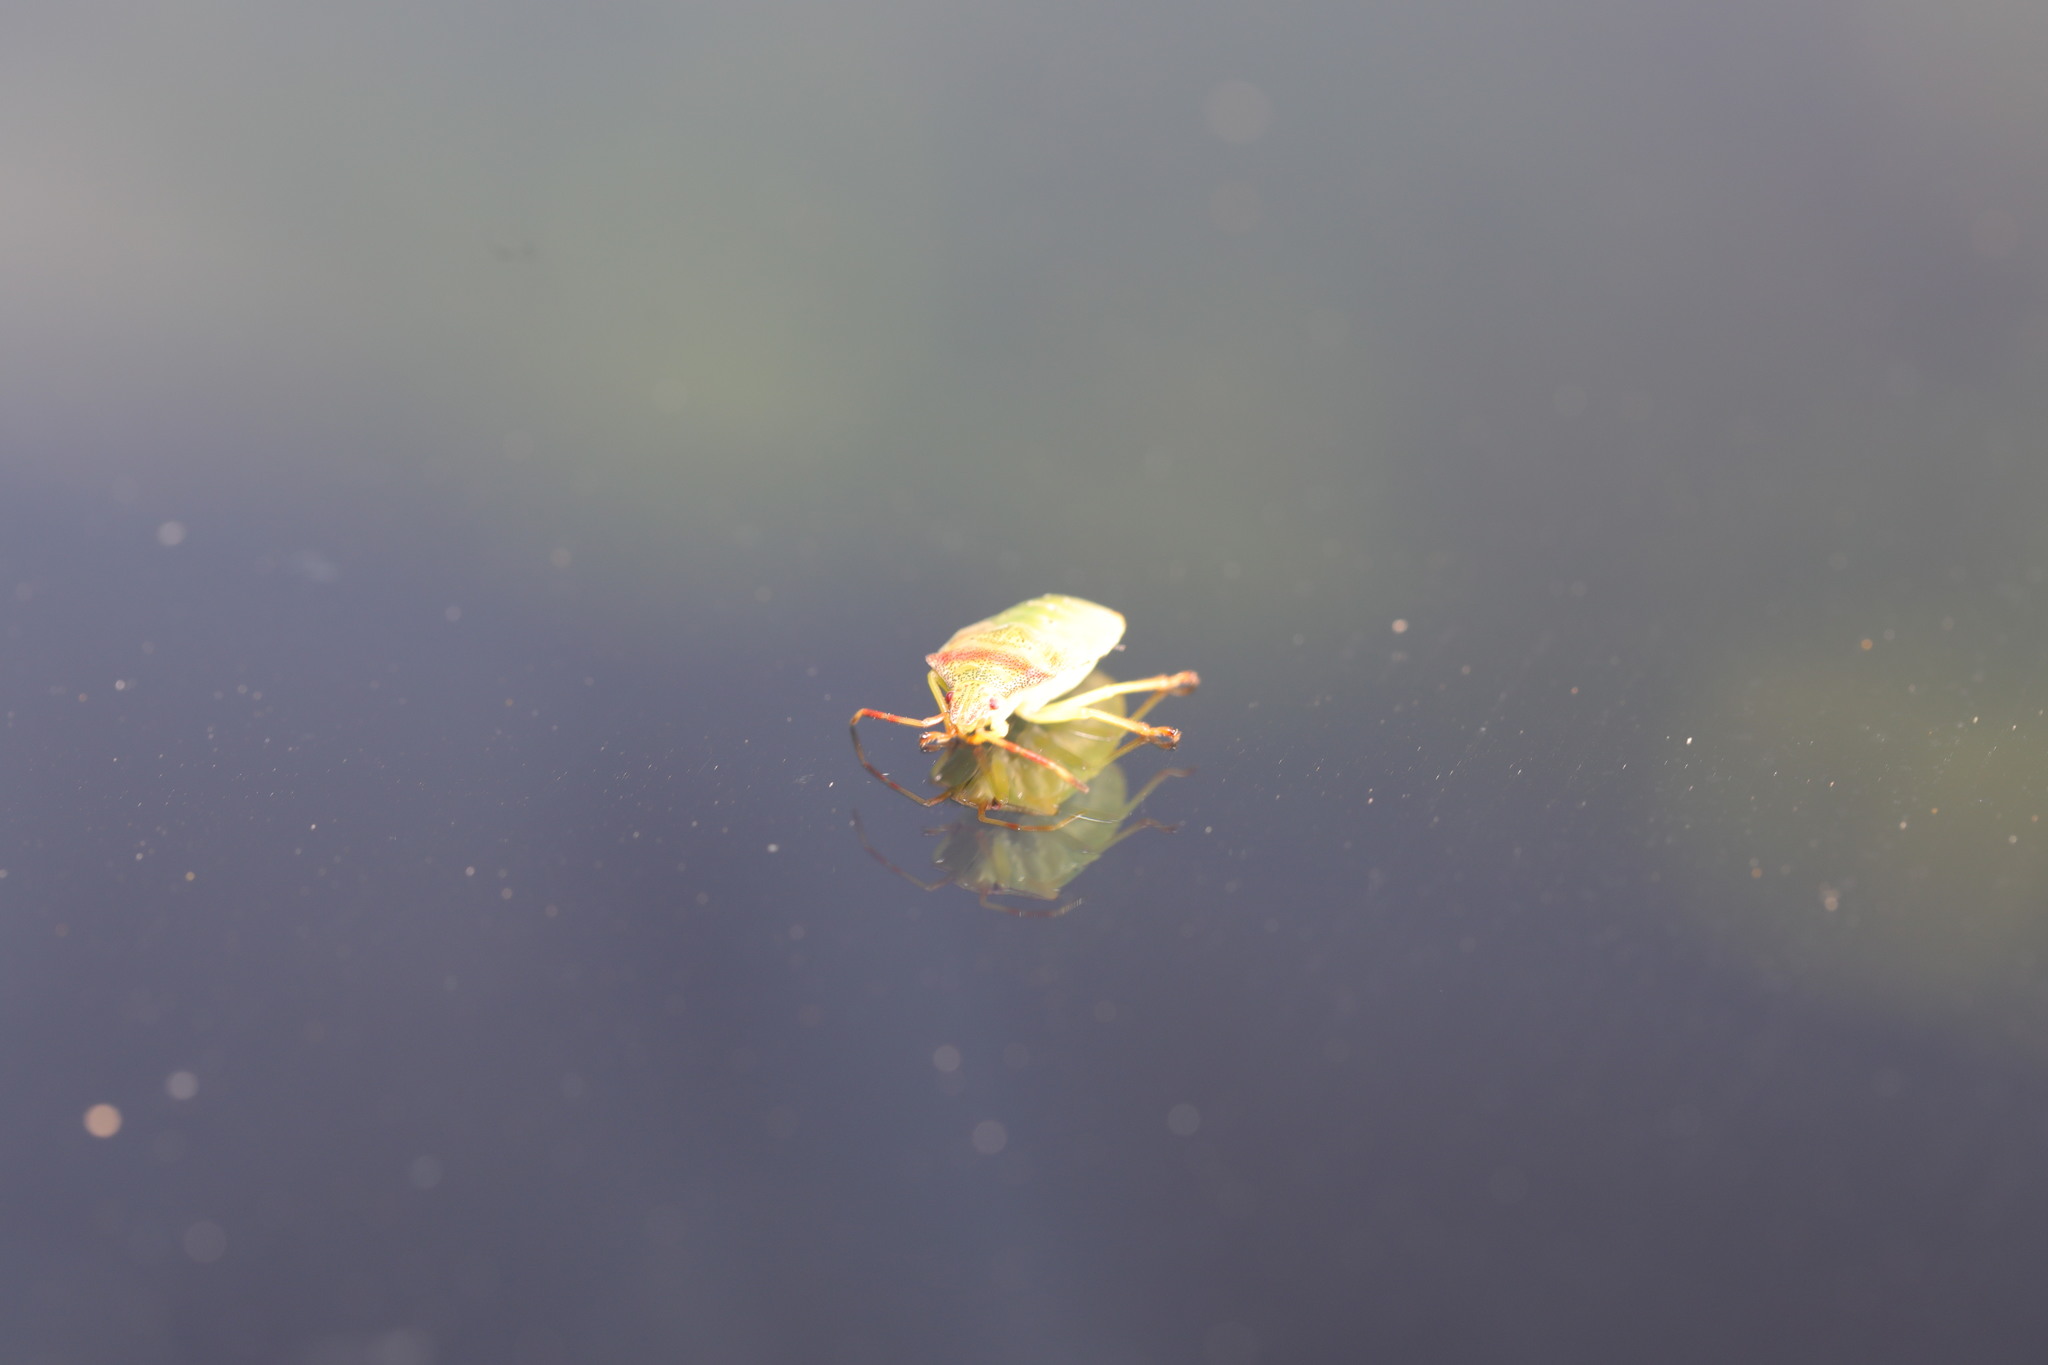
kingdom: Animalia
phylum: Arthropoda
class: Insecta
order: Hemiptera
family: Acanthosomatidae
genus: Acanthosoma
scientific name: Acanthosoma haemorrhoidale
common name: Hawthorn shieldbug
